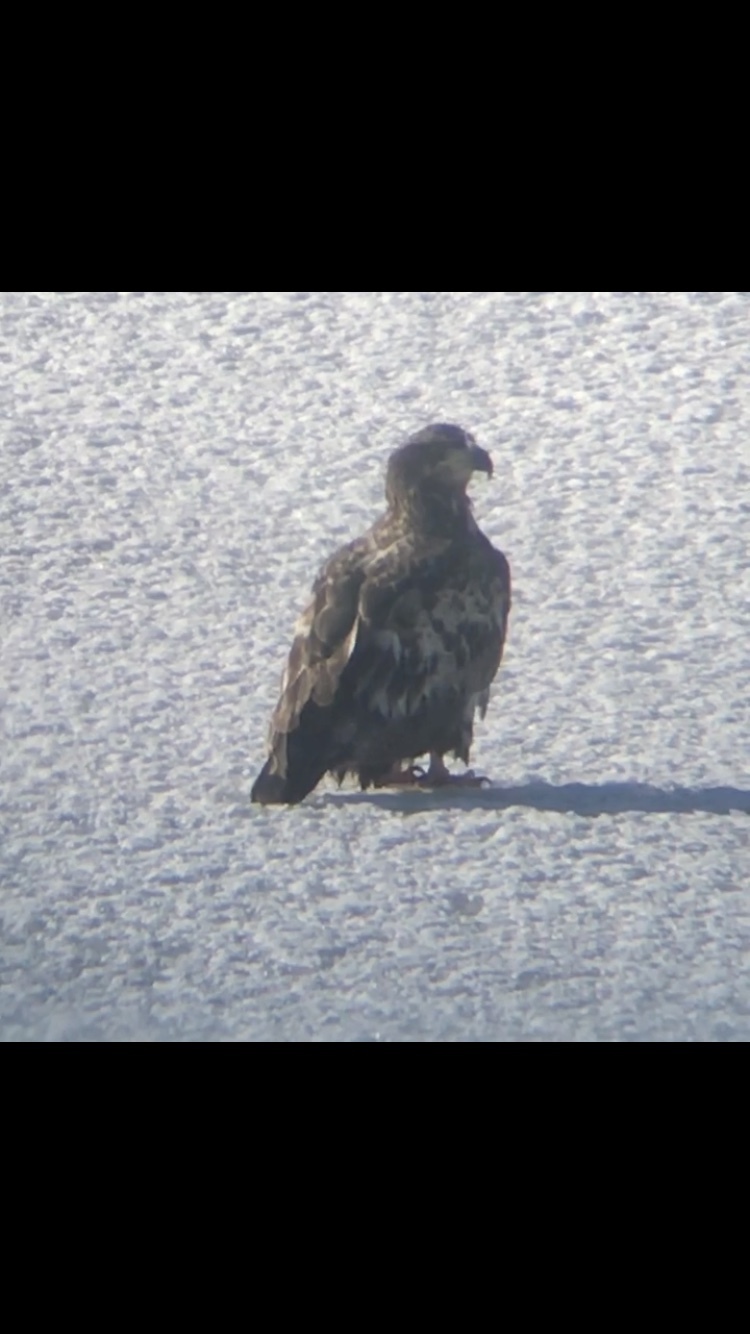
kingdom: Animalia
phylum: Chordata
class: Aves
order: Accipitriformes
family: Accipitridae
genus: Haliaeetus
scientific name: Haliaeetus leucocephalus
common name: Bald eagle
